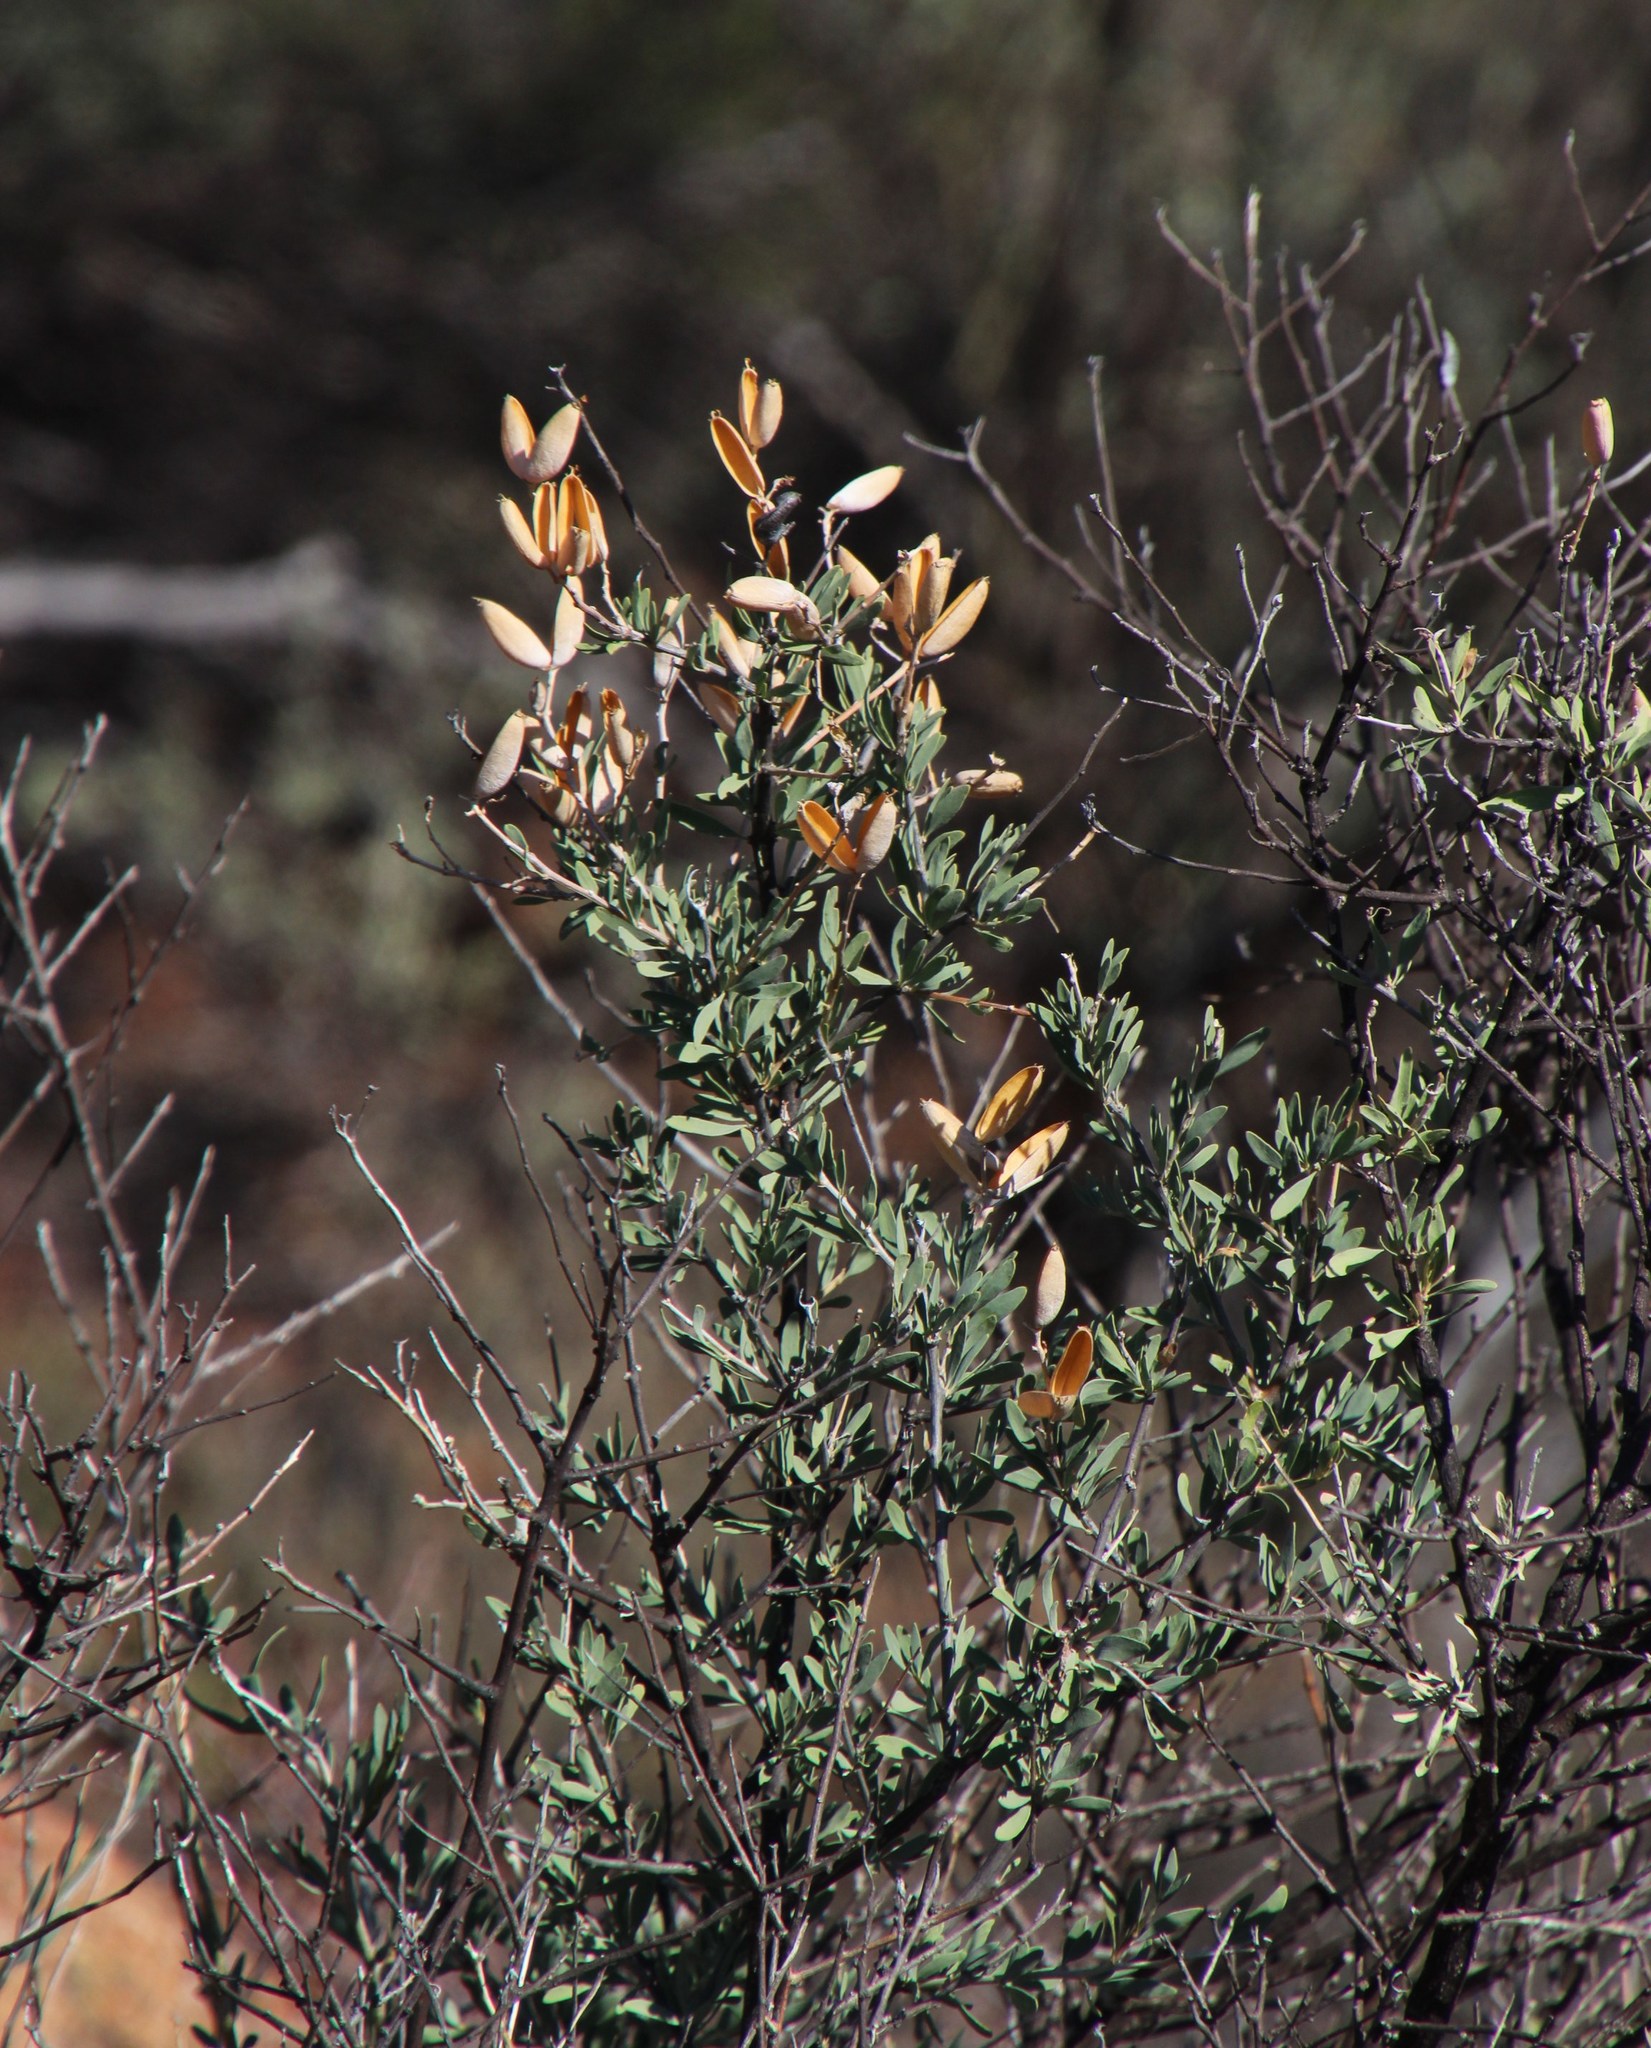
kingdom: Plantae
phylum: Tracheophyta
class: Magnoliopsida
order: Solanales
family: Montiniaceae
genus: Montinia
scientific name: Montinia caryophyllacea
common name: Wild clove-bush
